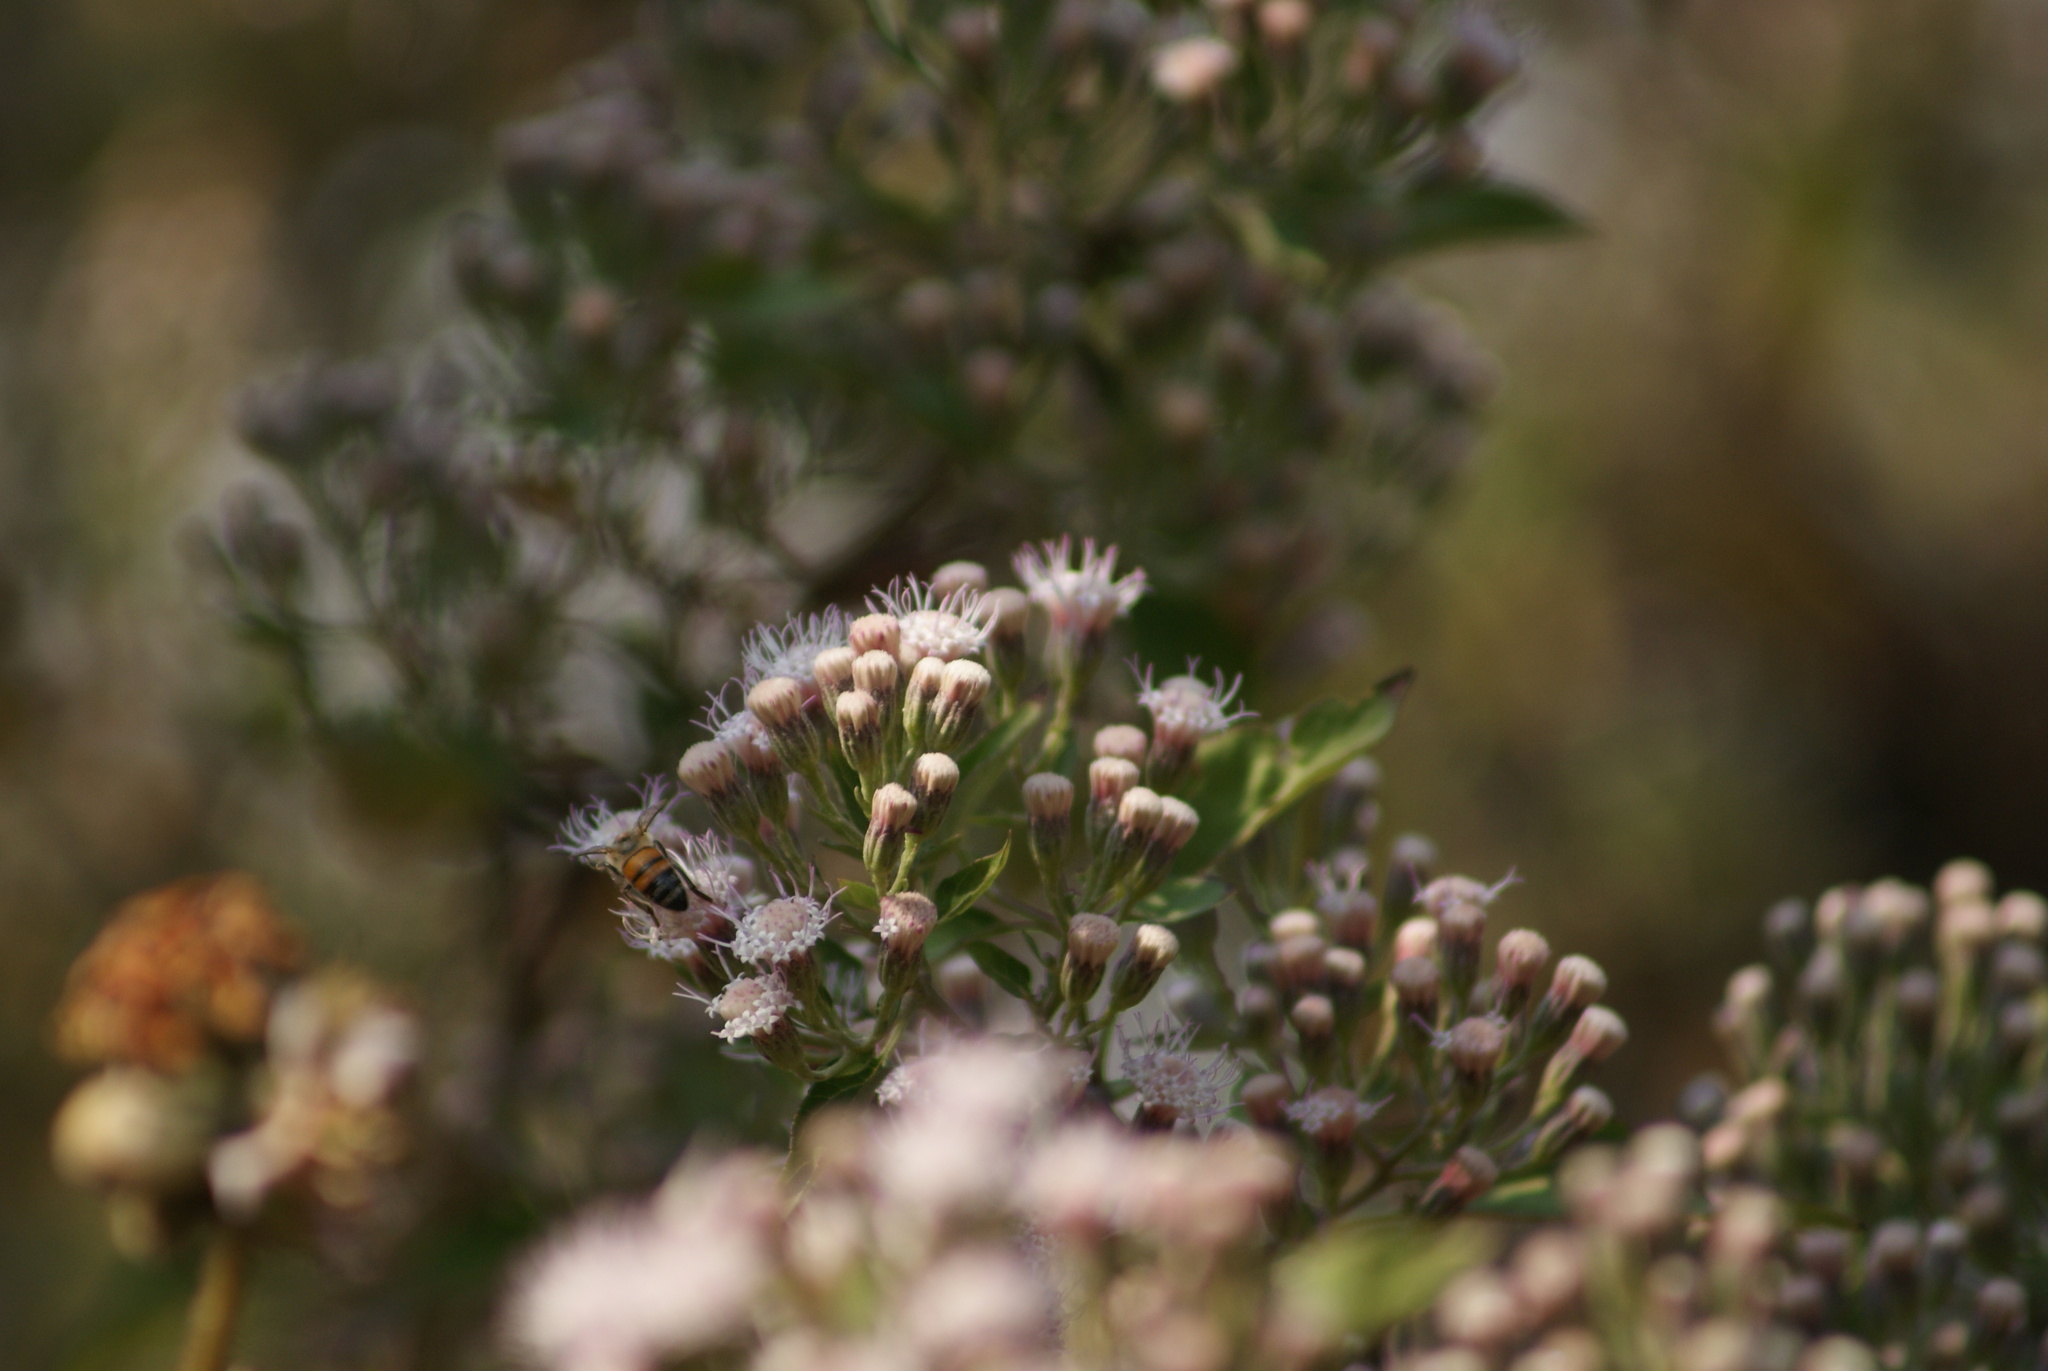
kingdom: Animalia
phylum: Arthropoda
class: Insecta
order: Hymenoptera
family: Apidae
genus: Apis
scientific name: Apis mellifera
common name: Honey bee
